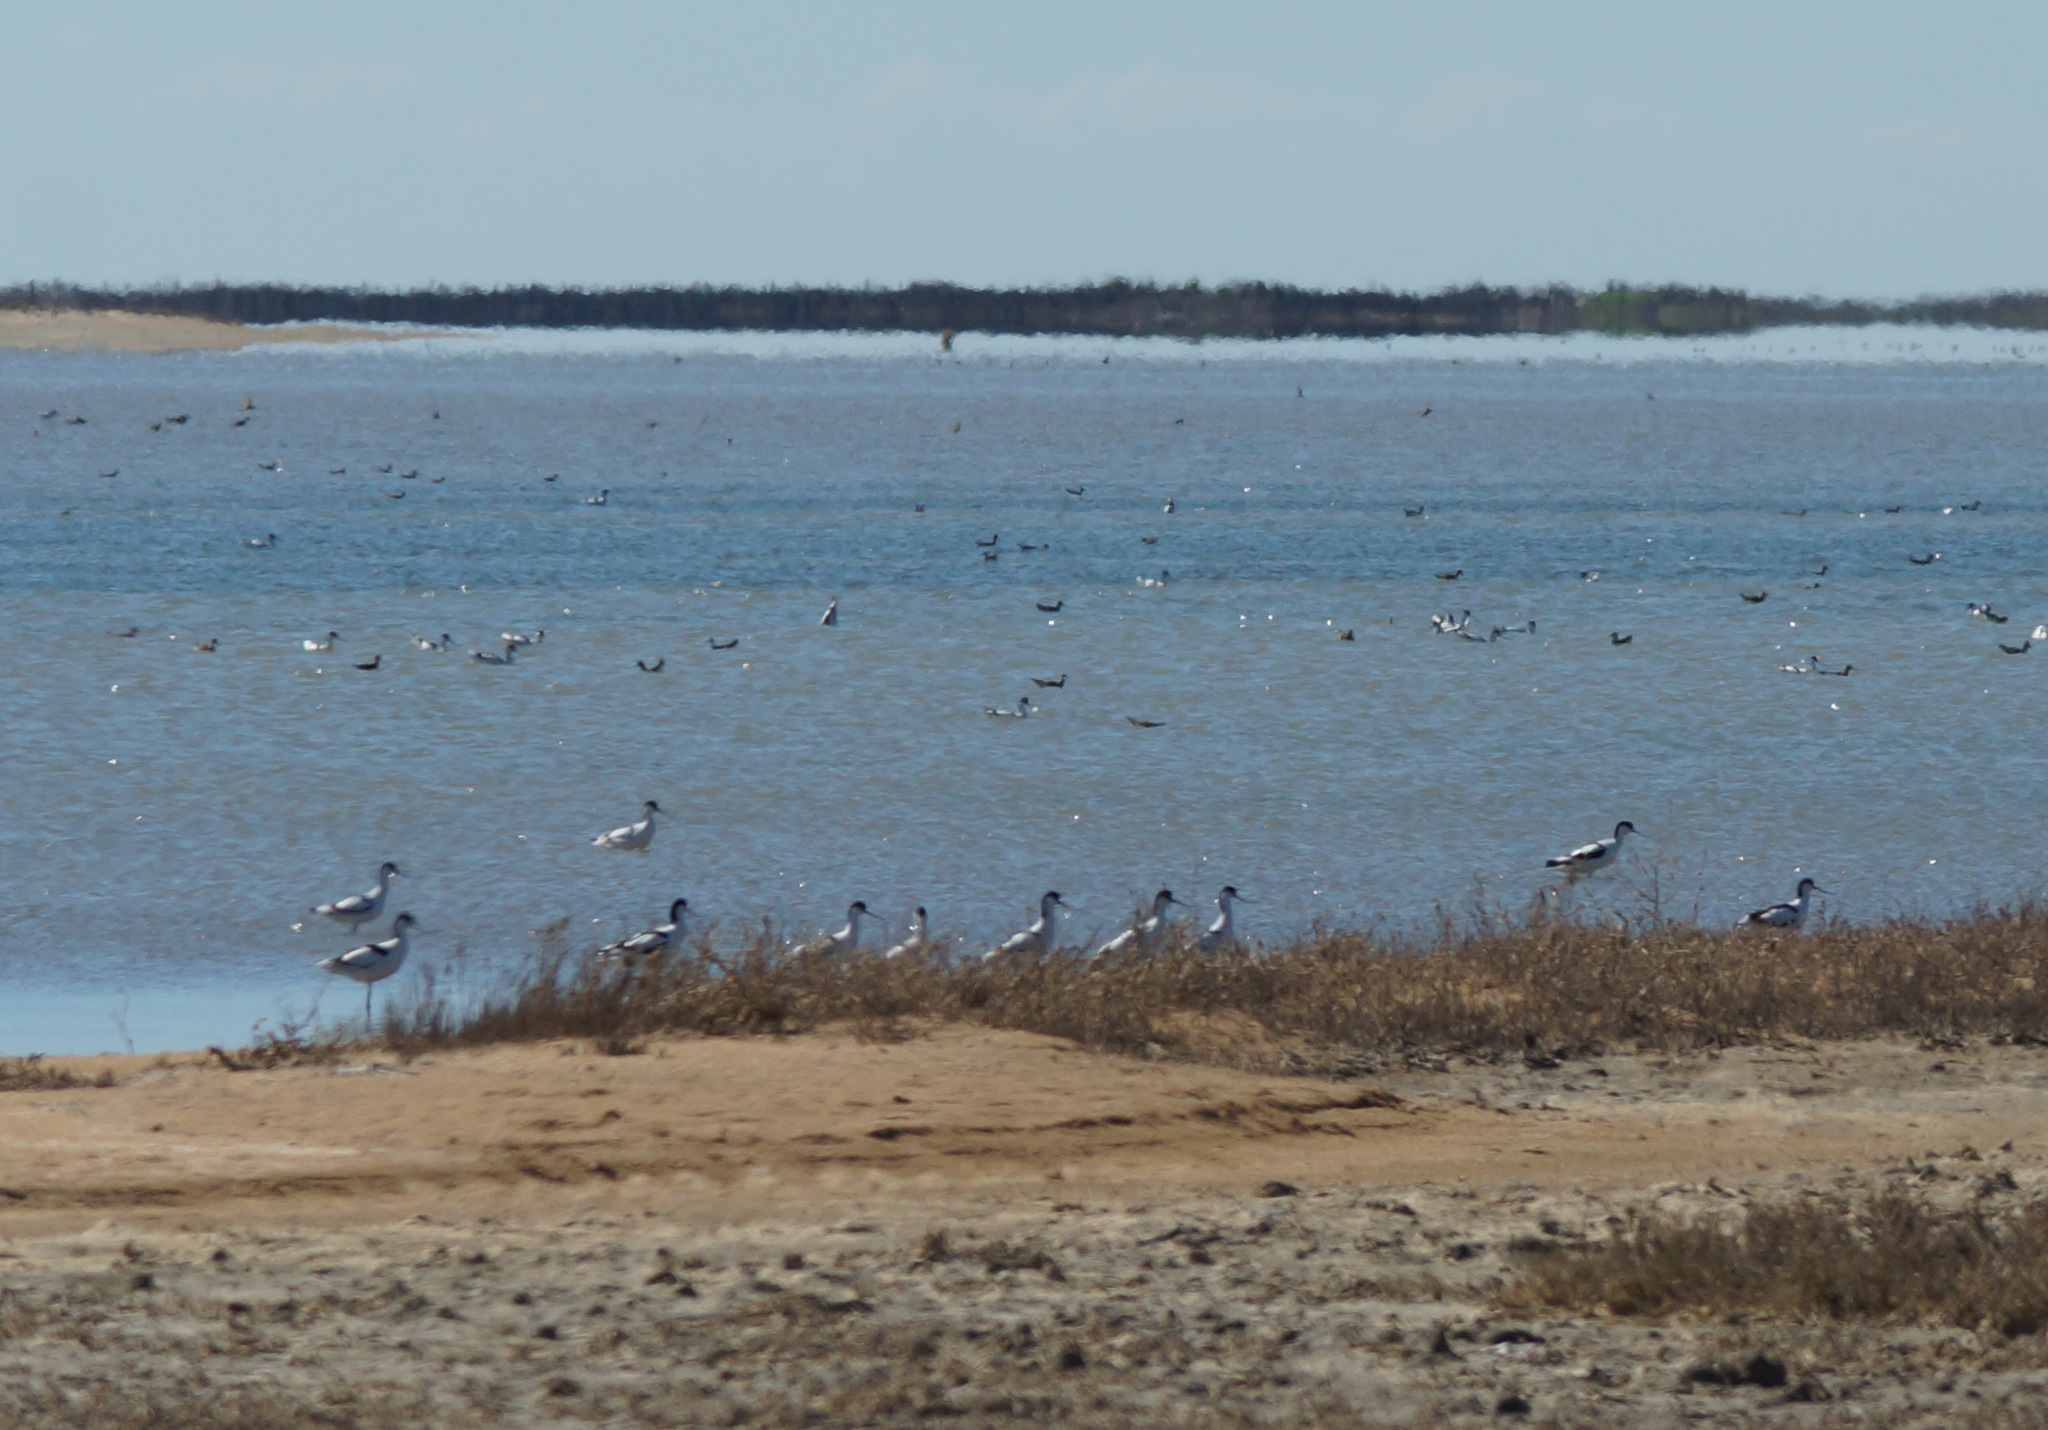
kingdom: Animalia
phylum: Chordata
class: Aves
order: Charadriiformes
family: Recurvirostridae
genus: Recurvirostra
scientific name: Recurvirostra avosetta
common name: Pied avocet
